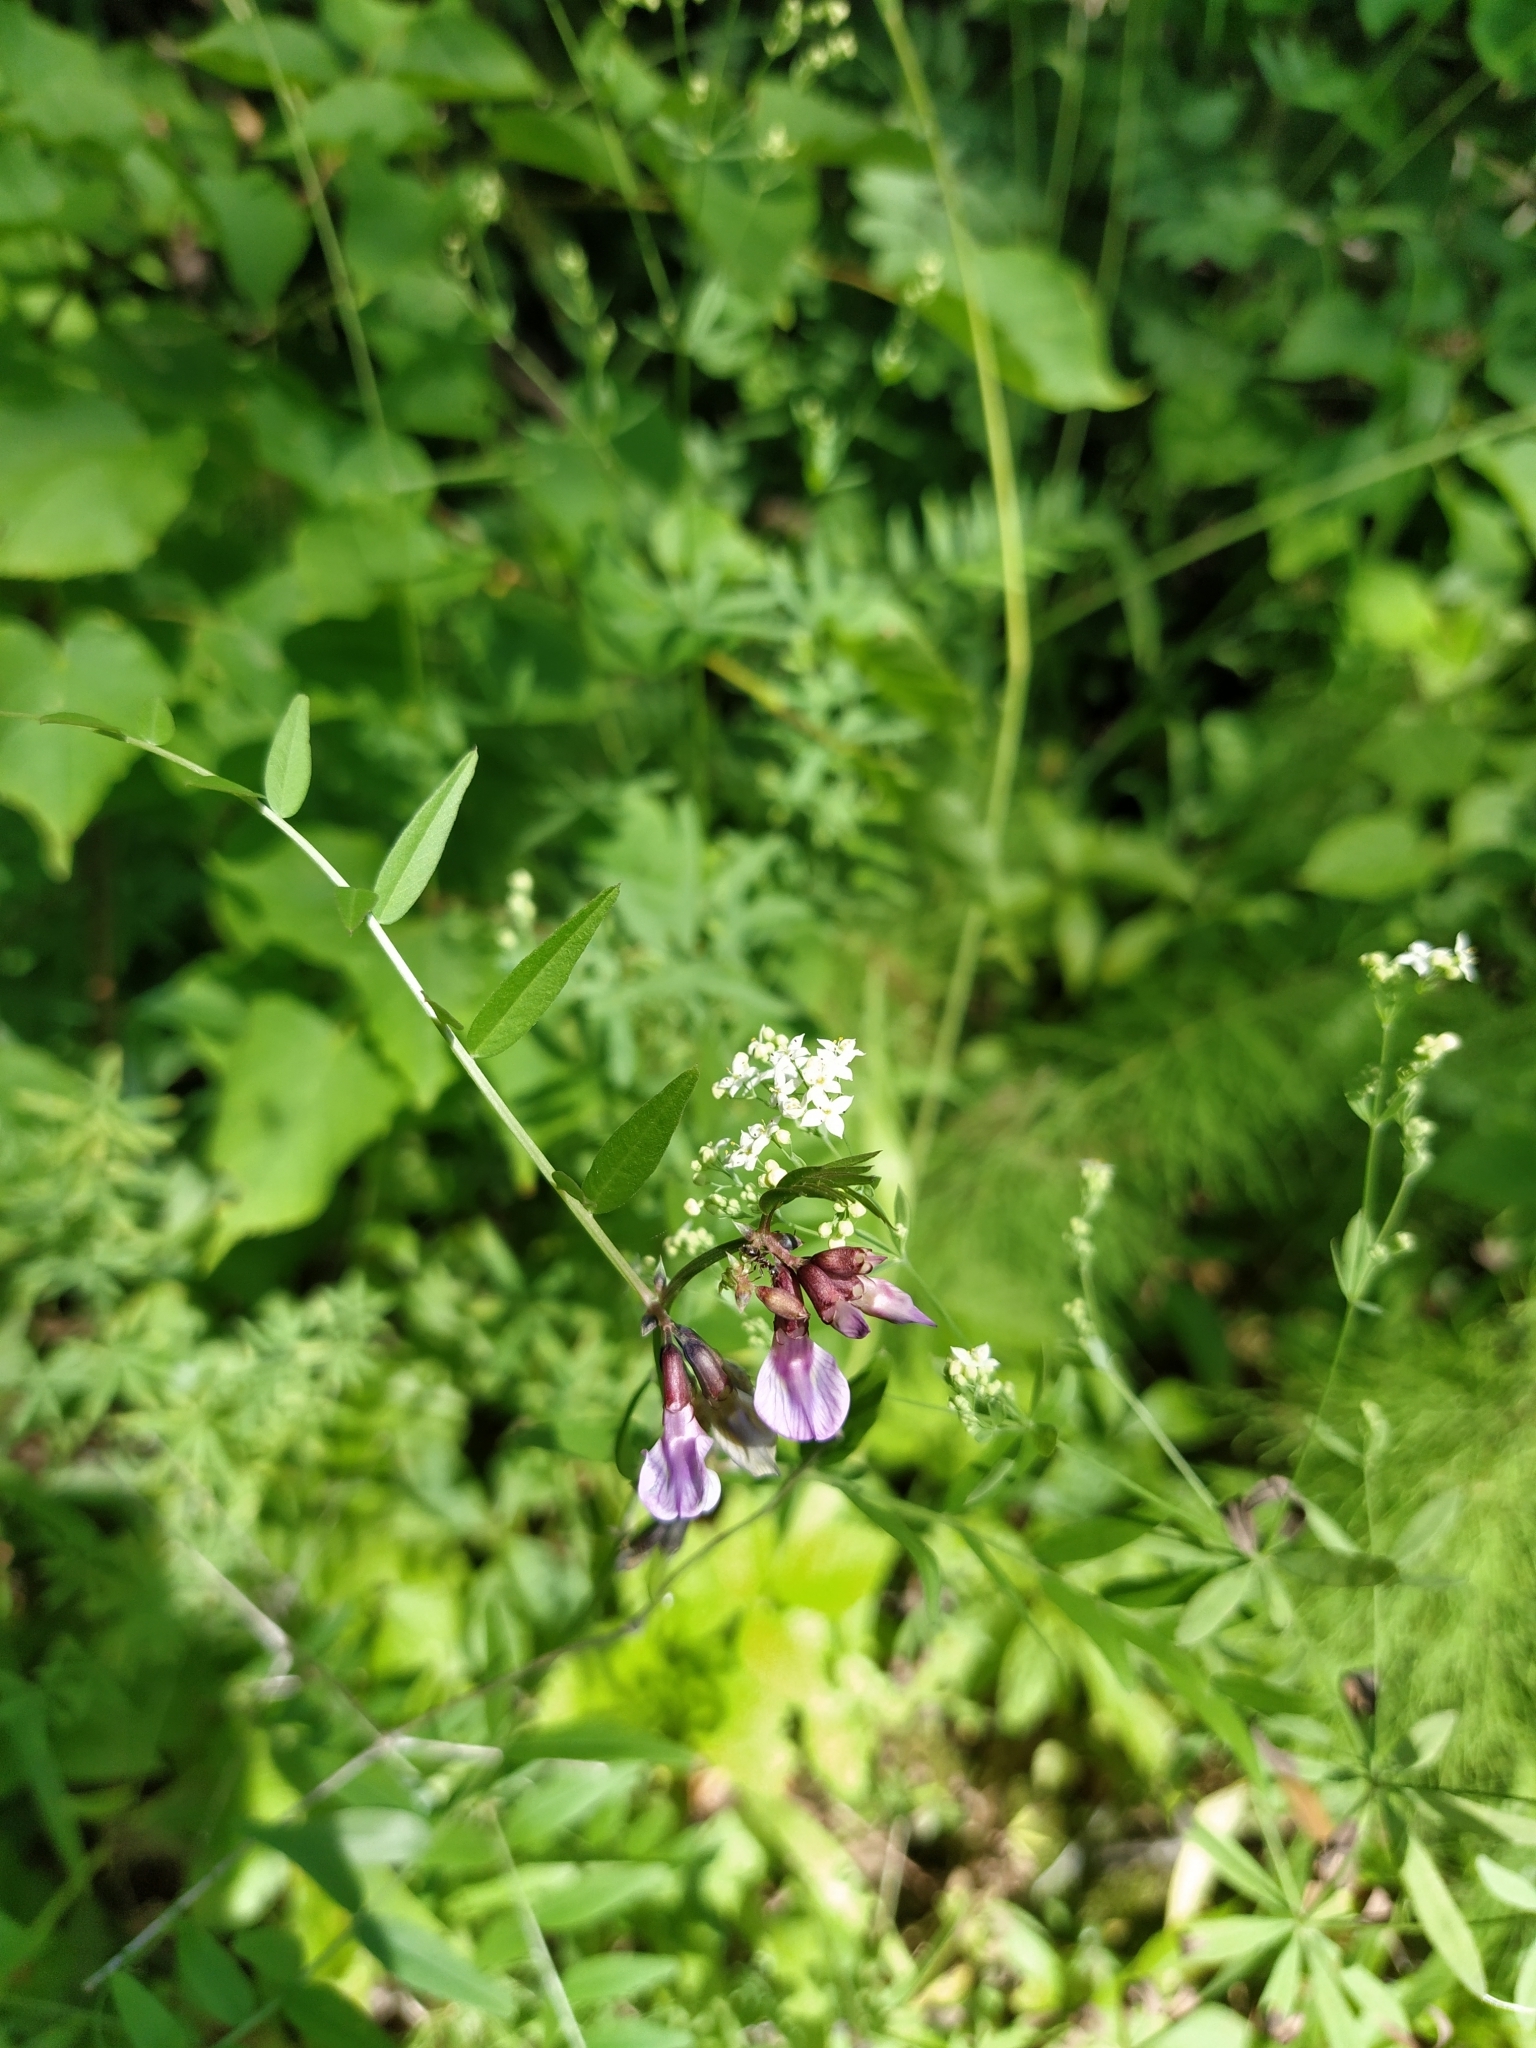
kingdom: Plantae
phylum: Tracheophyta
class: Magnoliopsida
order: Fabales
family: Fabaceae
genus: Vicia
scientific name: Vicia sepium
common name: Bush vetch
